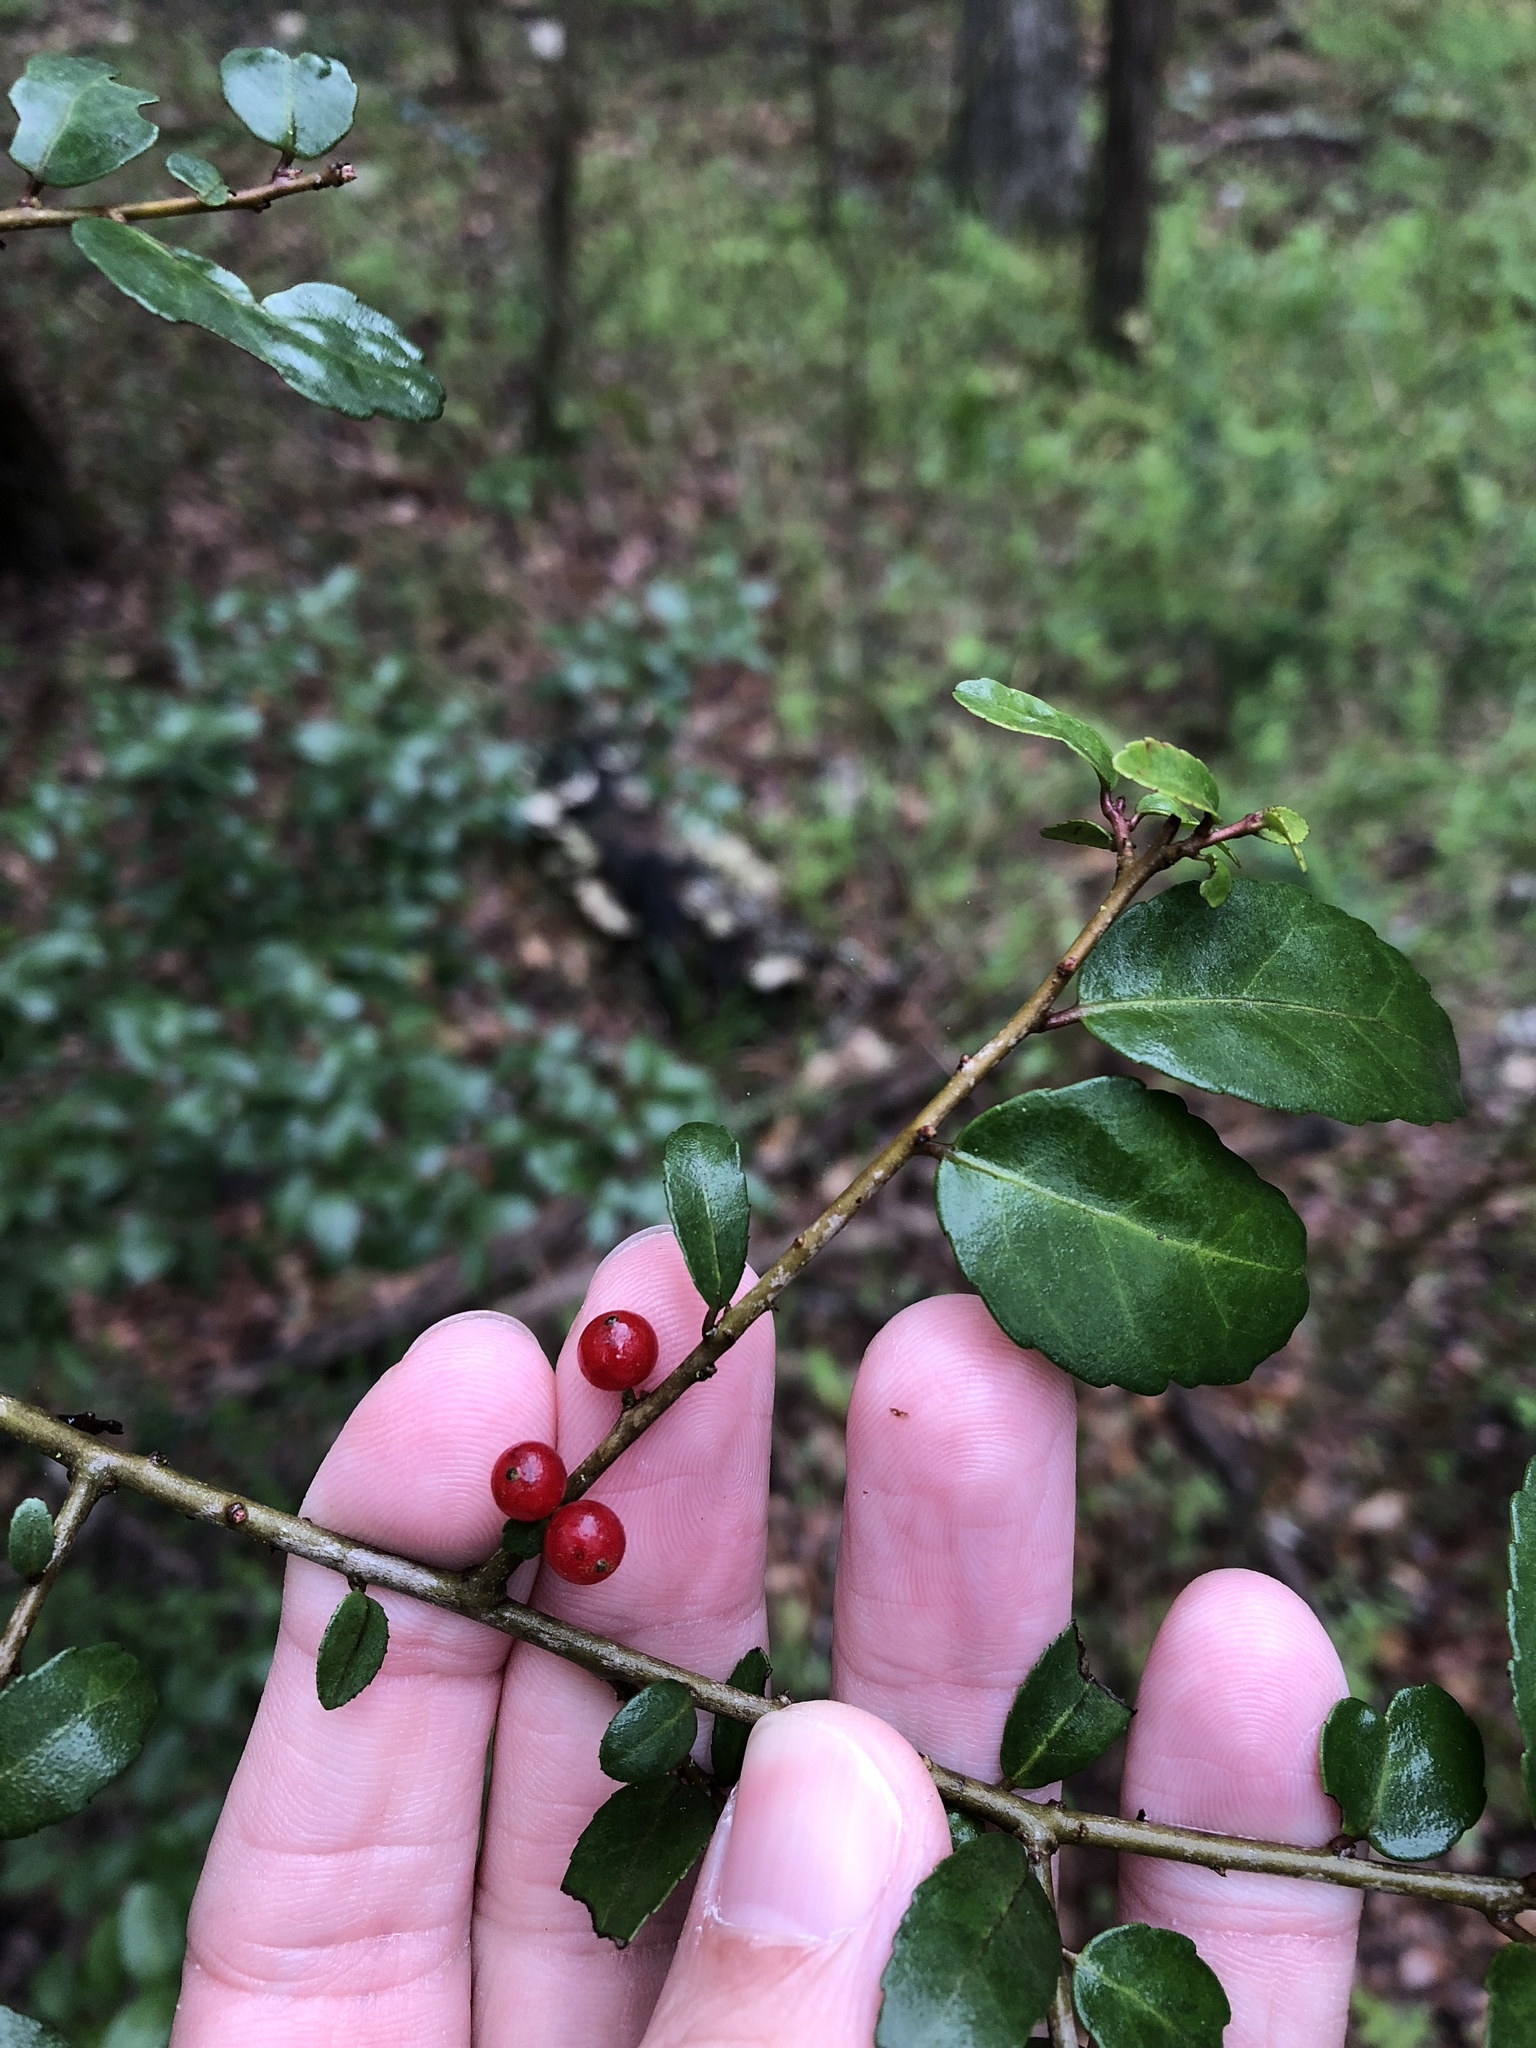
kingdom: Plantae
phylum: Tracheophyta
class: Magnoliopsida
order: Aquifoliales
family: Aquifoliaceae
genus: Ilex
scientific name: Ilex vomitoria
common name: Yaupon holly
